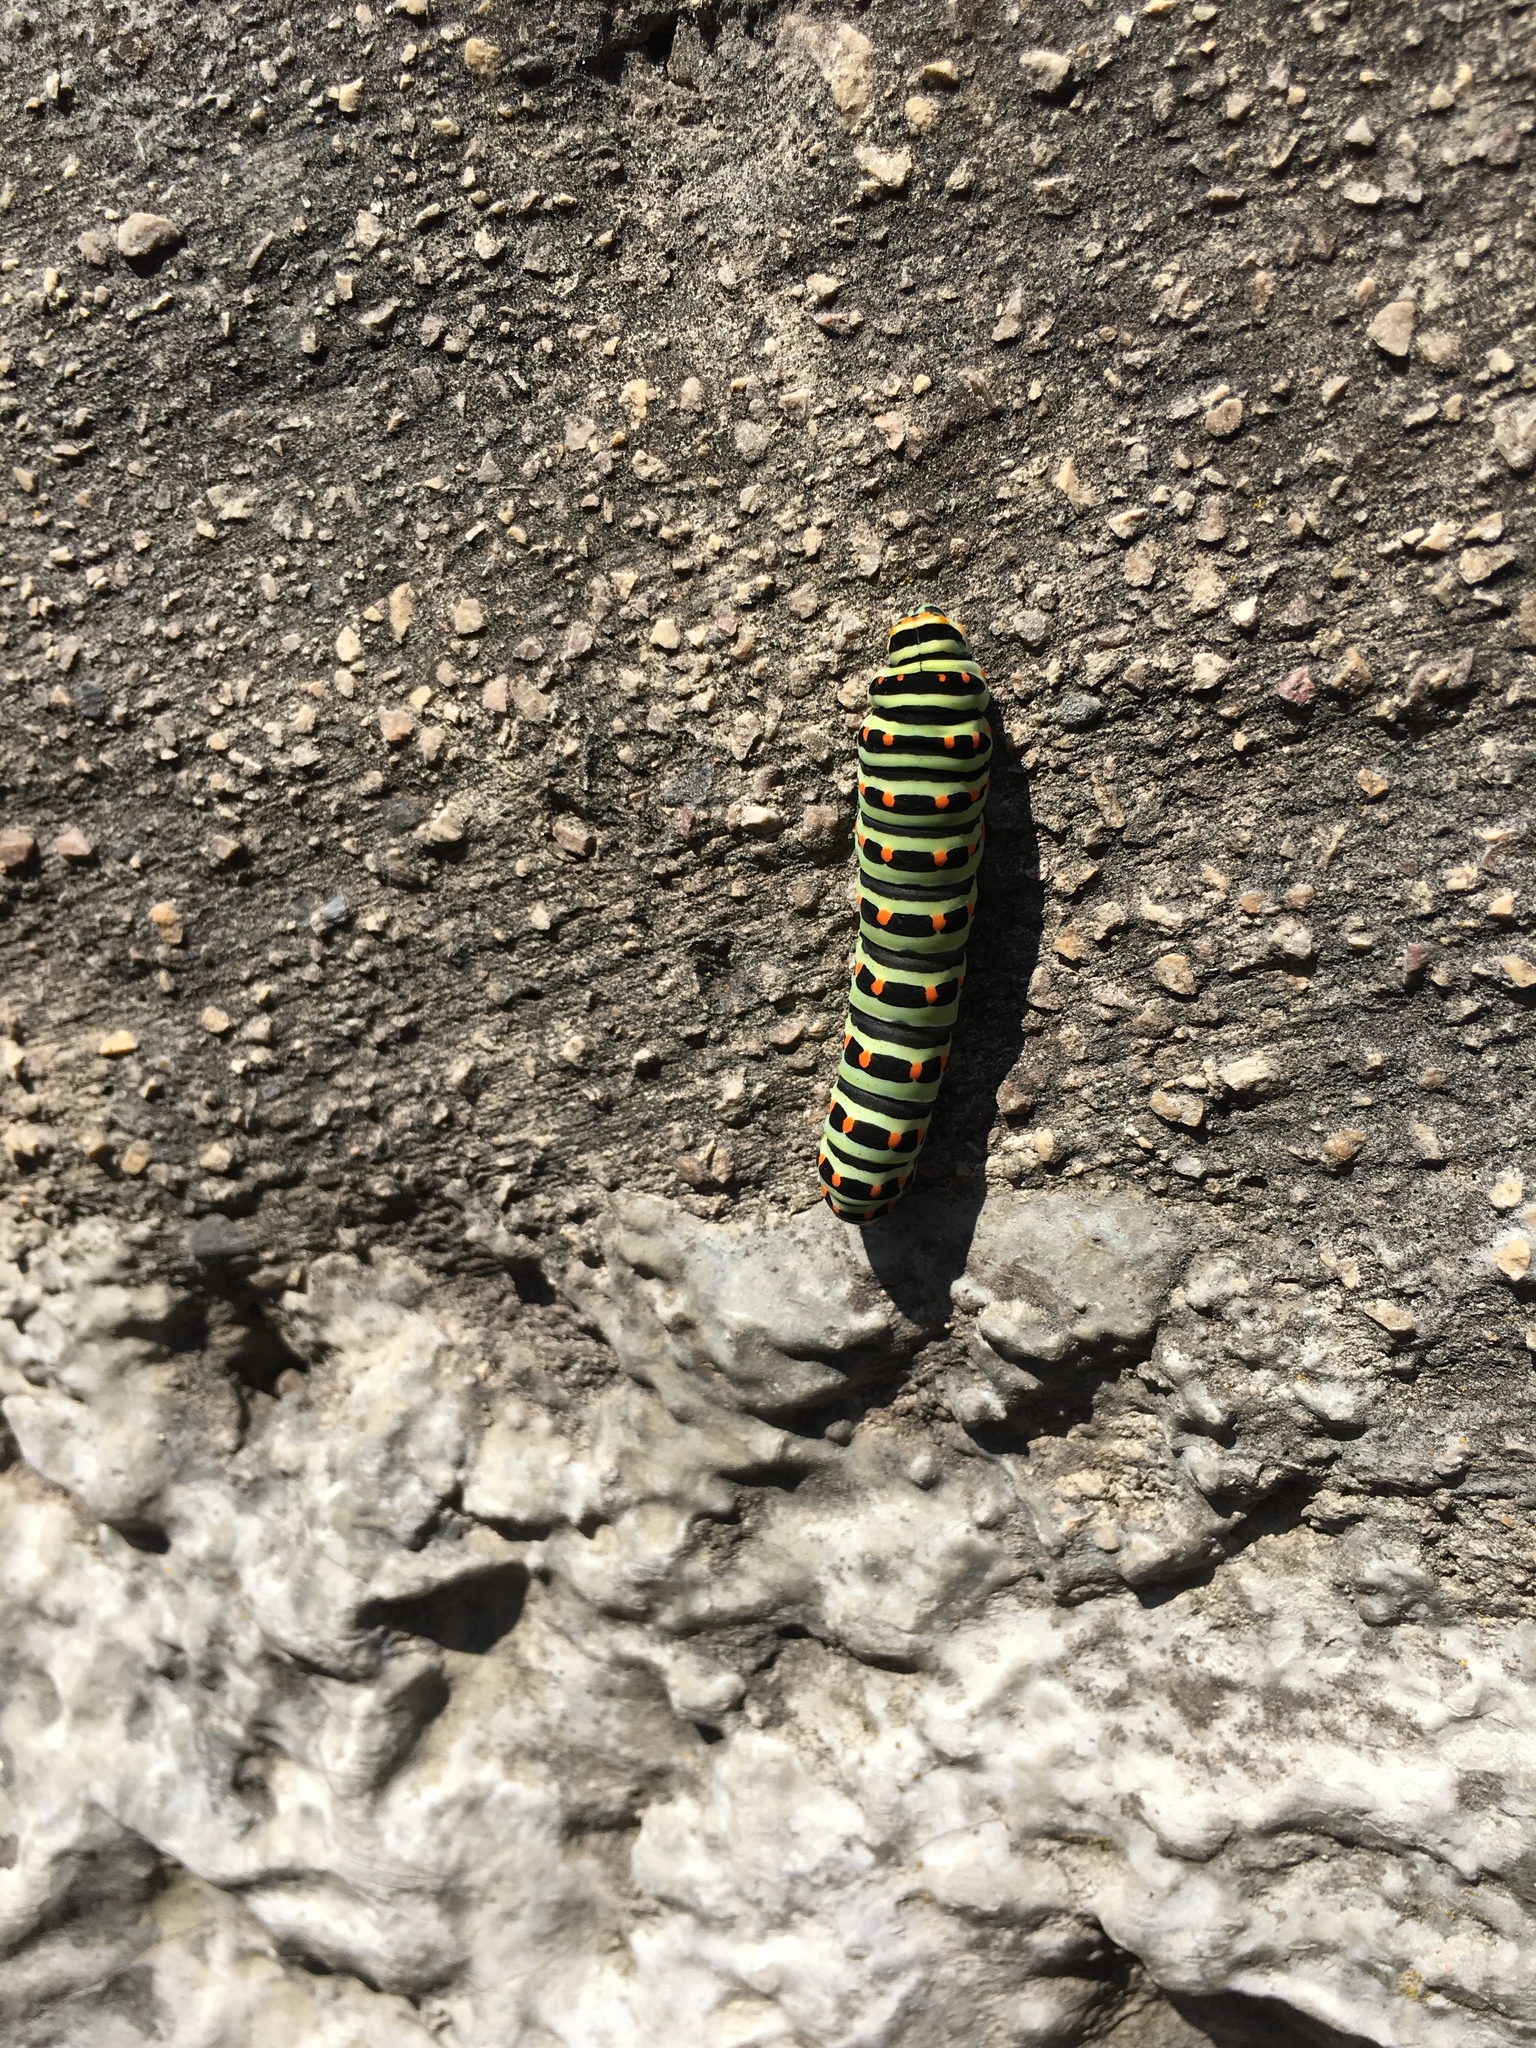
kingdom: Animalia
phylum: Arthropoda
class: Insecta
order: Lepidoptera
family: Papilionidae
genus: Papilio
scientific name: Papilio machaon
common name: Swallowtail
